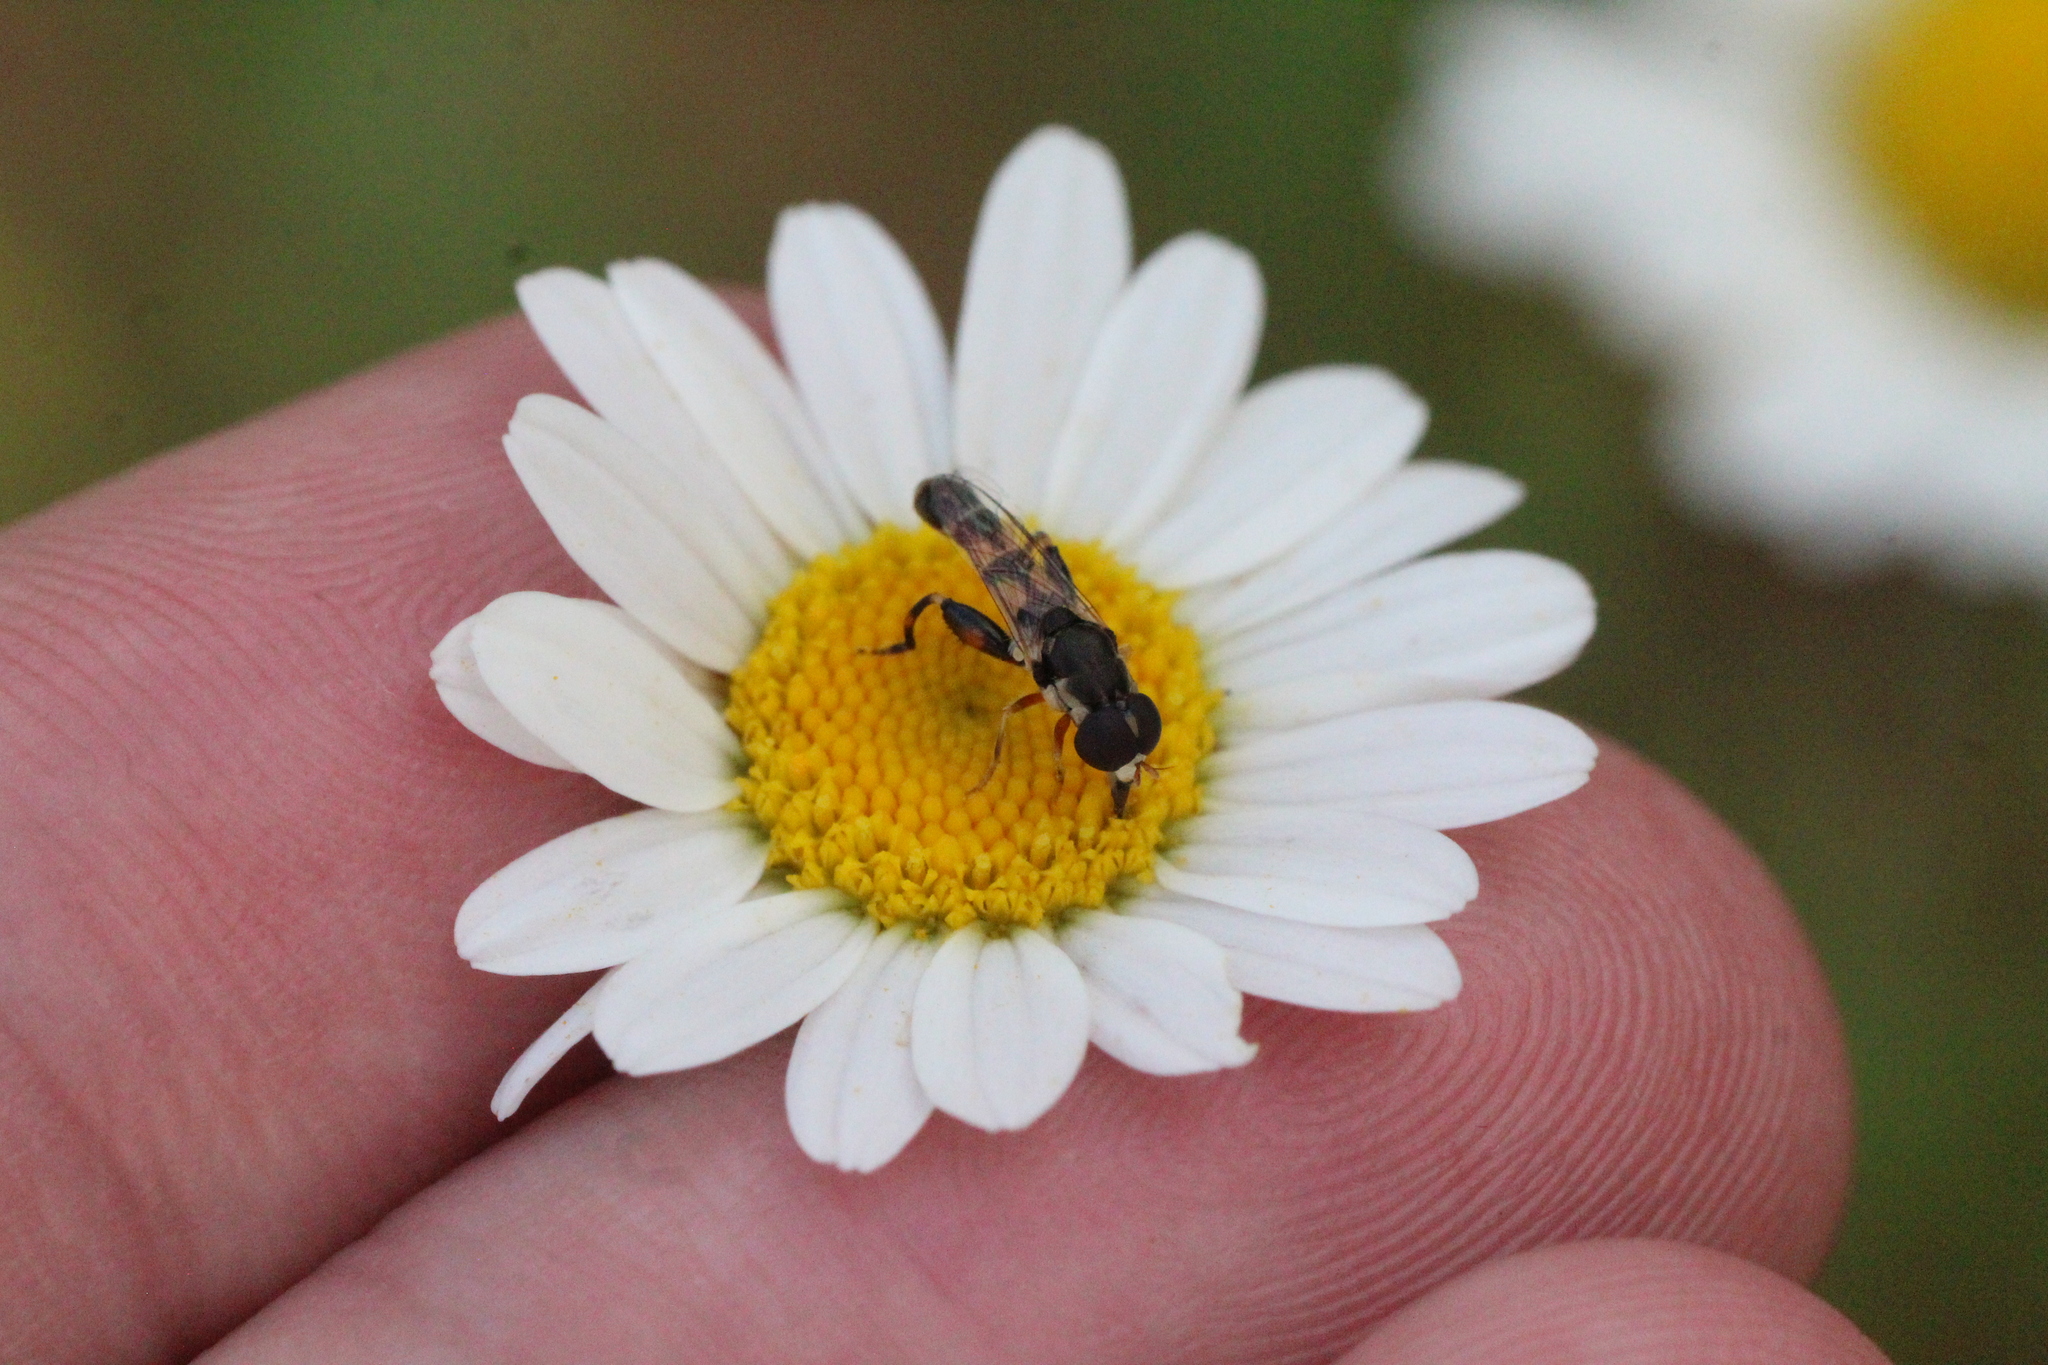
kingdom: Animalia
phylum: Arthropoda
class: Insecta
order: Diptera
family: Syrphidae
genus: Syritta
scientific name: Syritta pipiens
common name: Hover fly
